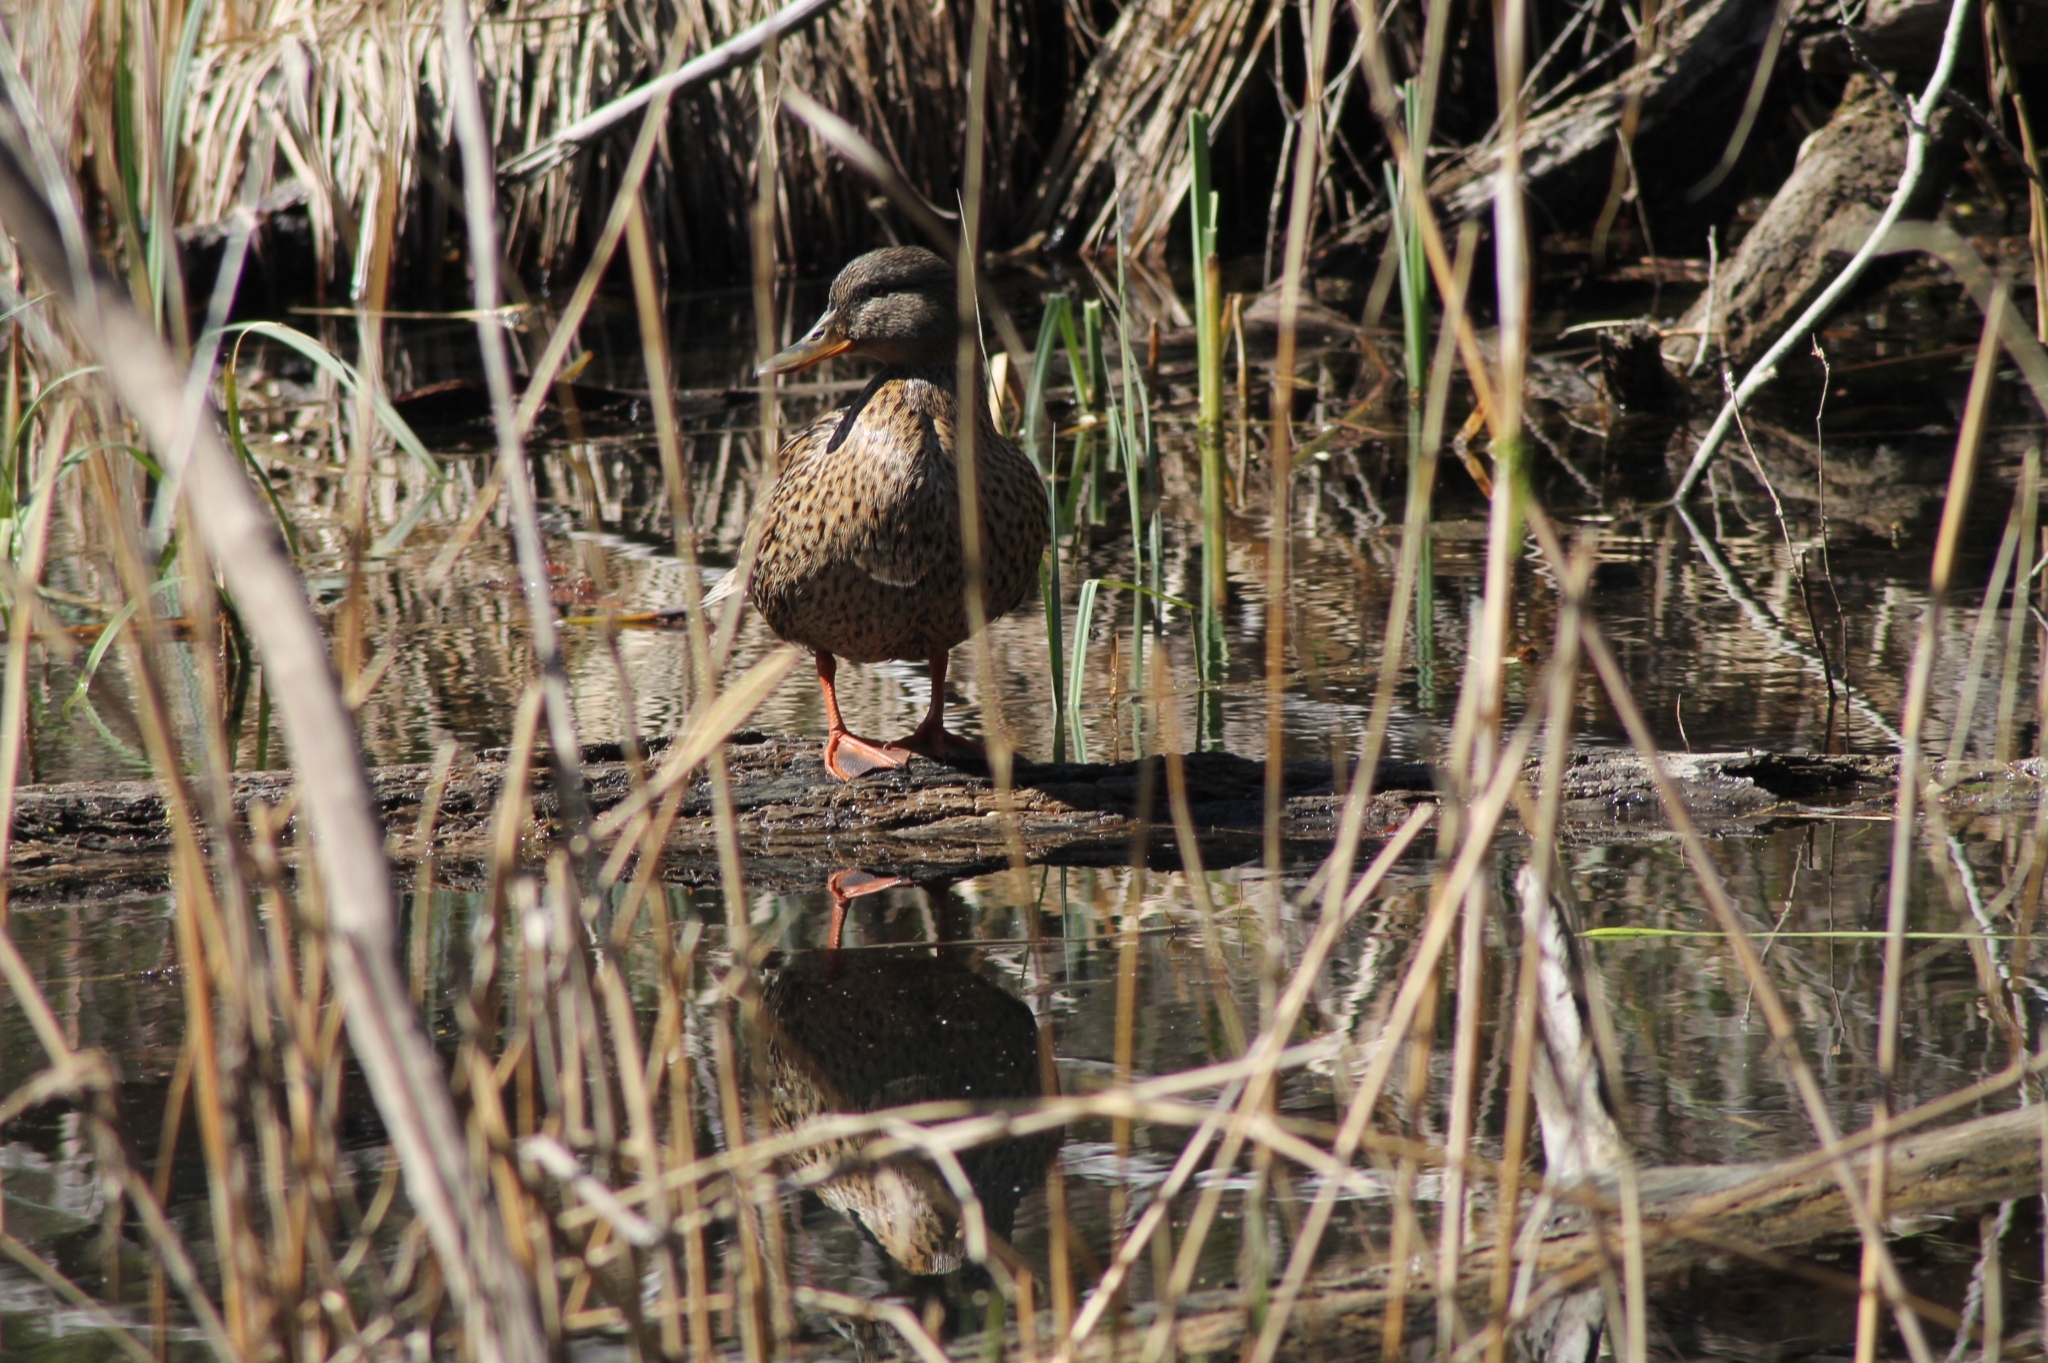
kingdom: Animalia
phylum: Chordata
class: Aves
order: Anseriformes
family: Anatidae
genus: Anas
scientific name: Anas platyrhynchos
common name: Mallard
